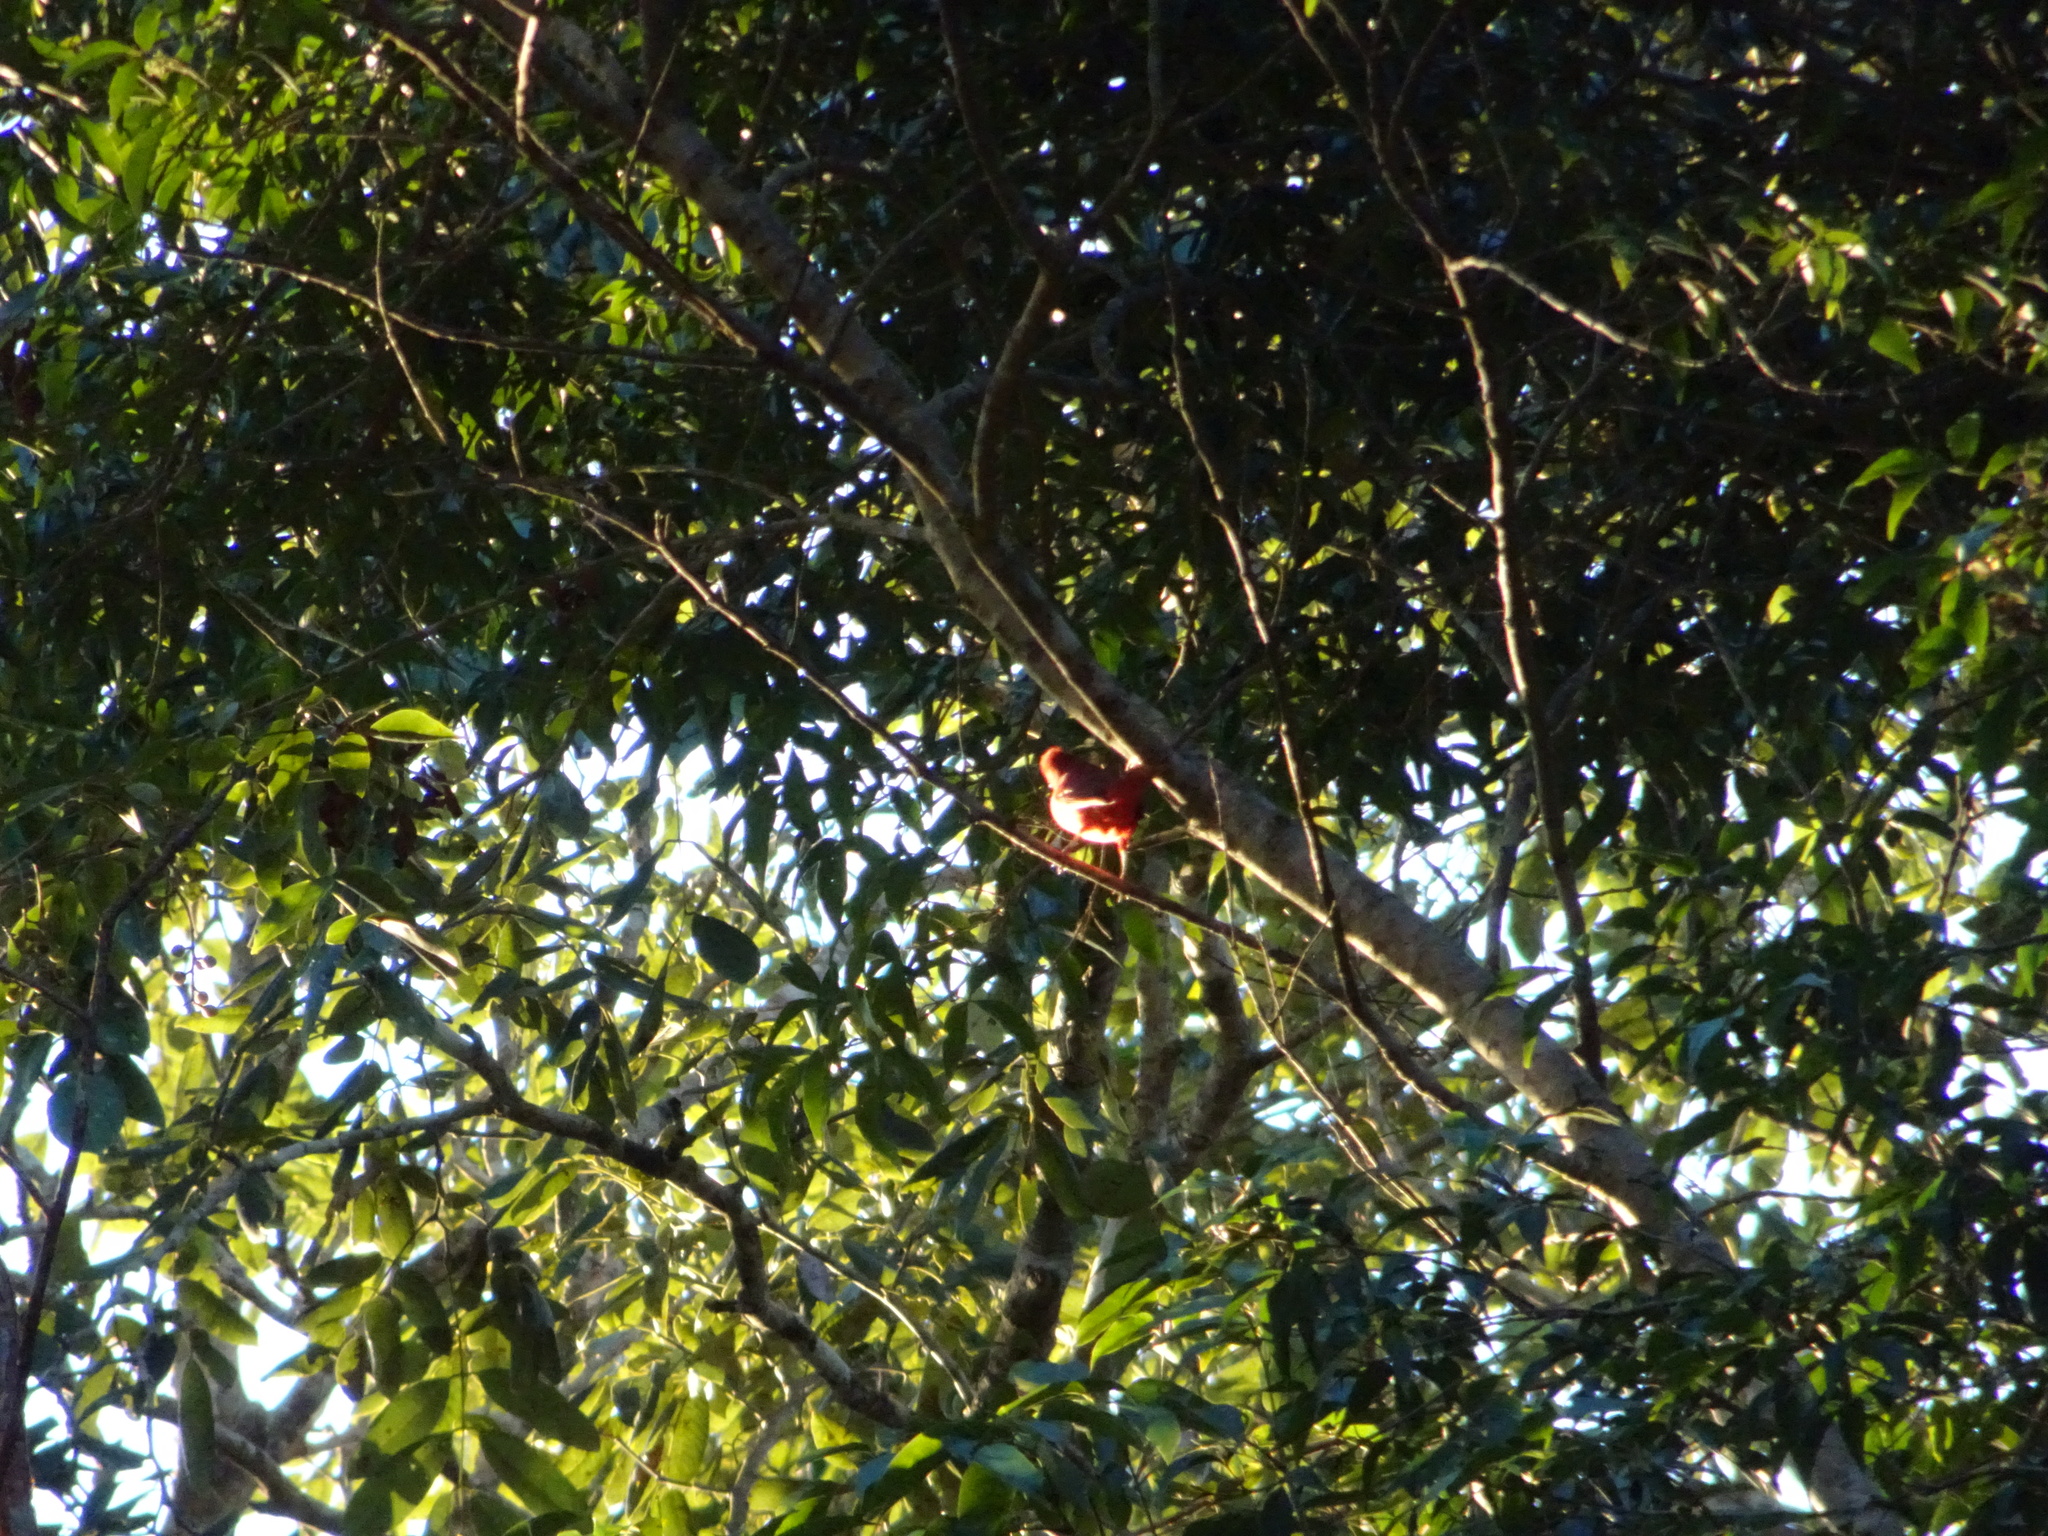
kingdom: Animalia
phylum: Chordata
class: Aves
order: Passeriformes
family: Cardinalidae
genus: Piranga
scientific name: Piranga rubra
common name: Summer tanager
